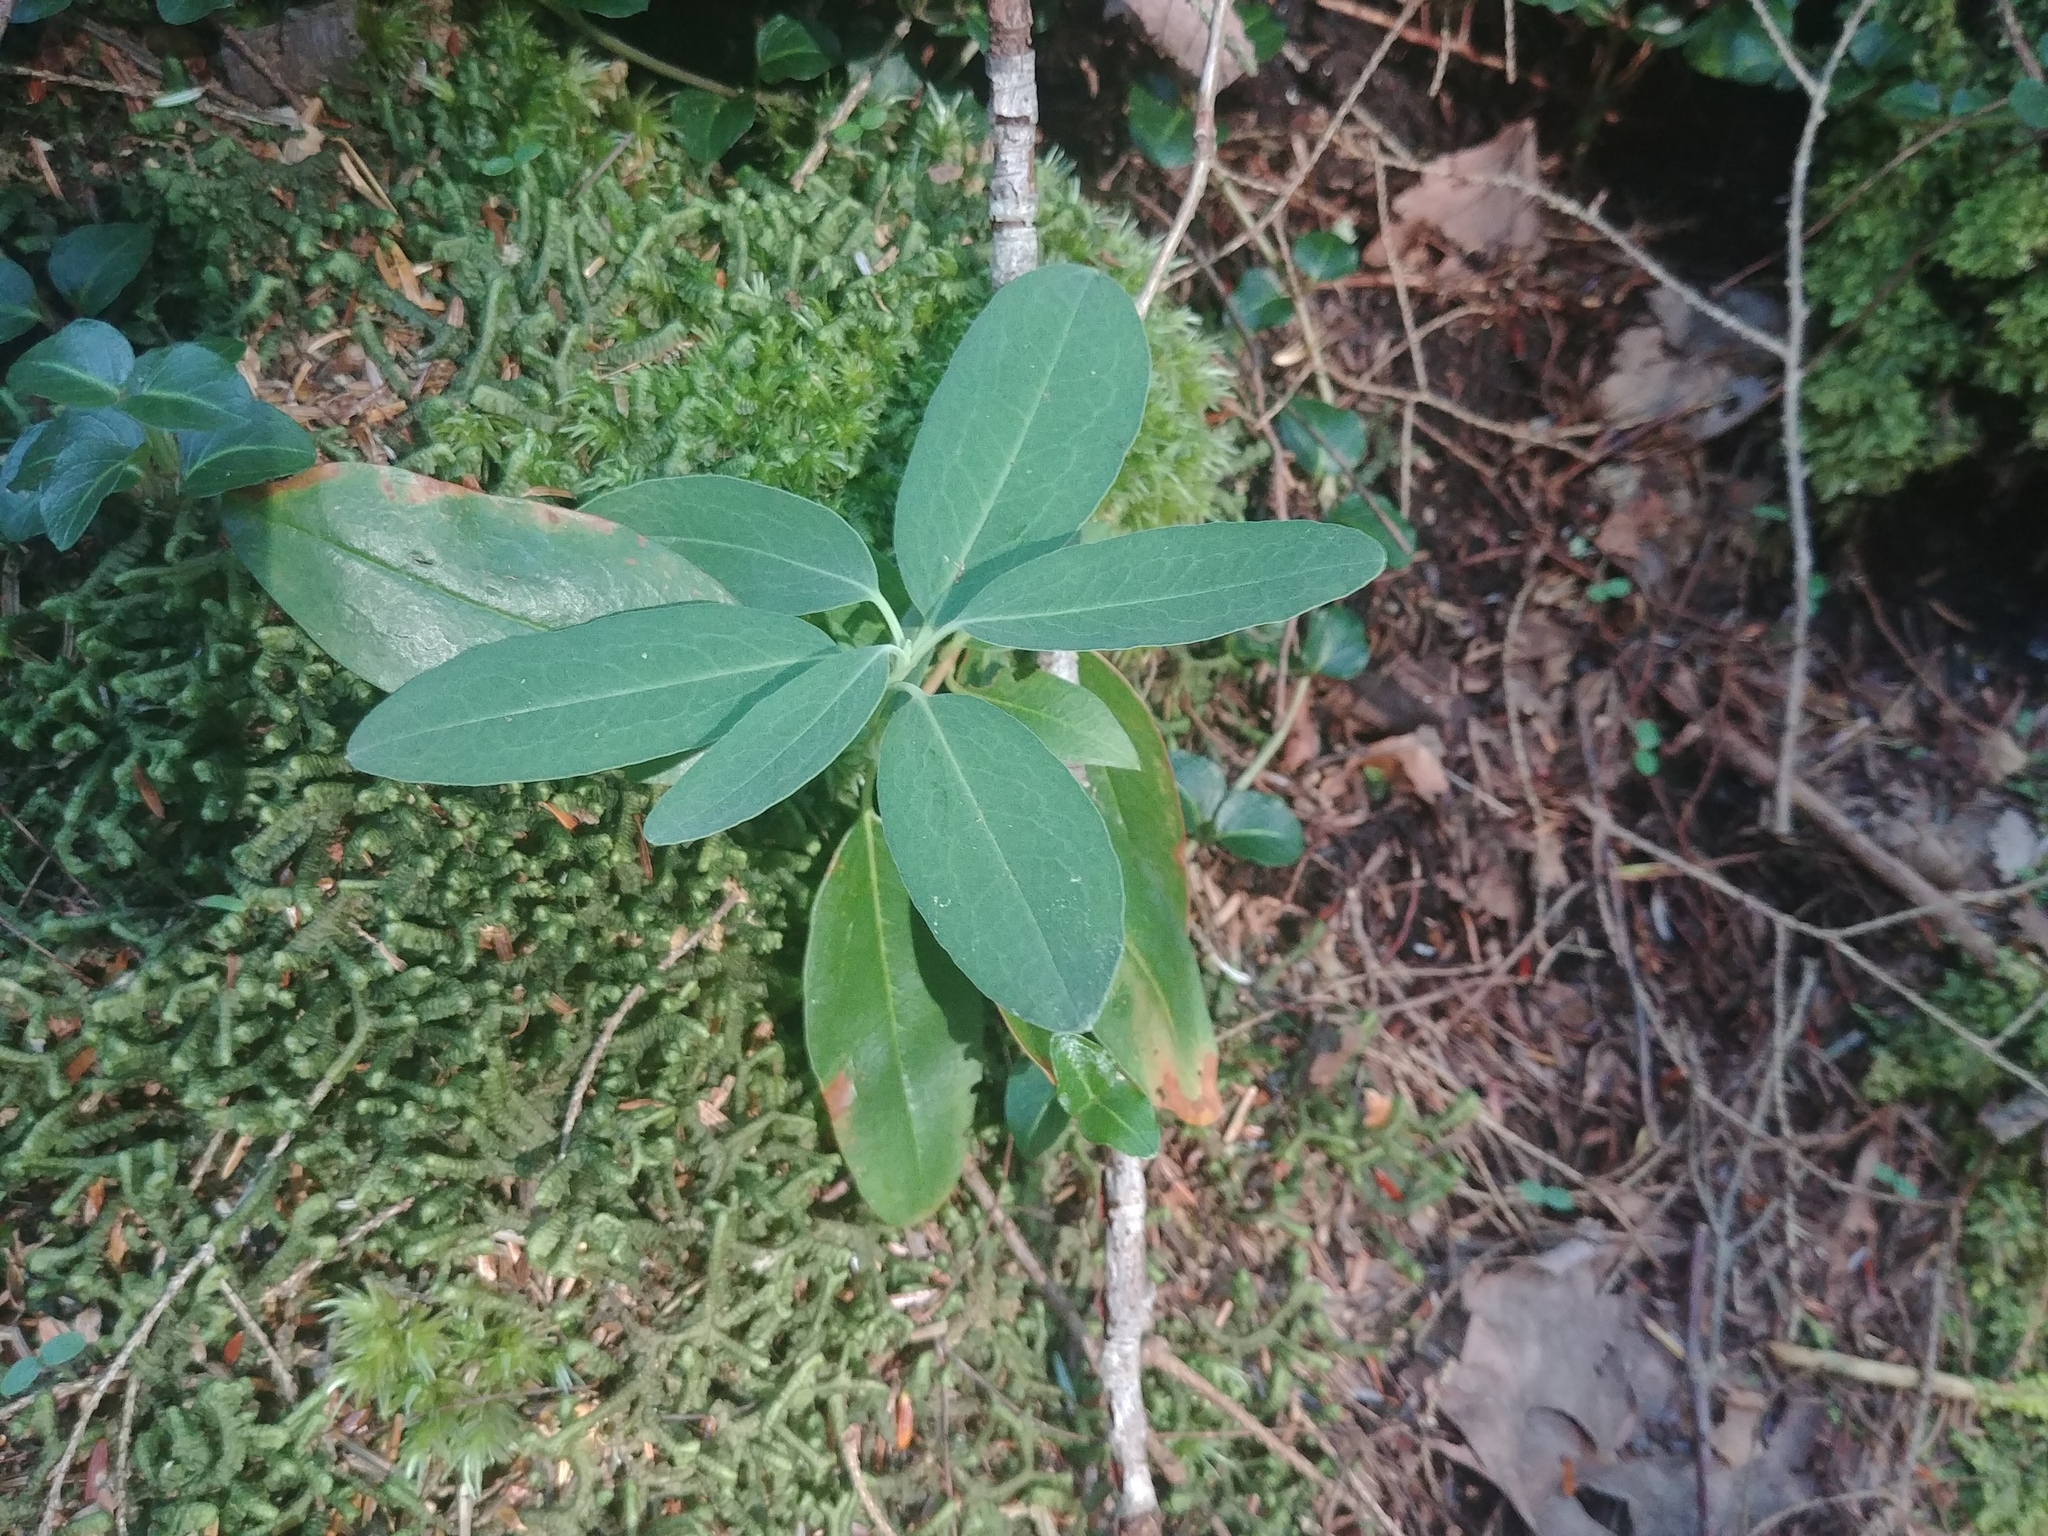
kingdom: Plantae
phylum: Tracheophyta
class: Magnoliopsida
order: Ericales
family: Ericaceae
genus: Kalmia
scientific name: Kalmia angustifolia
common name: Sheep-laurel
